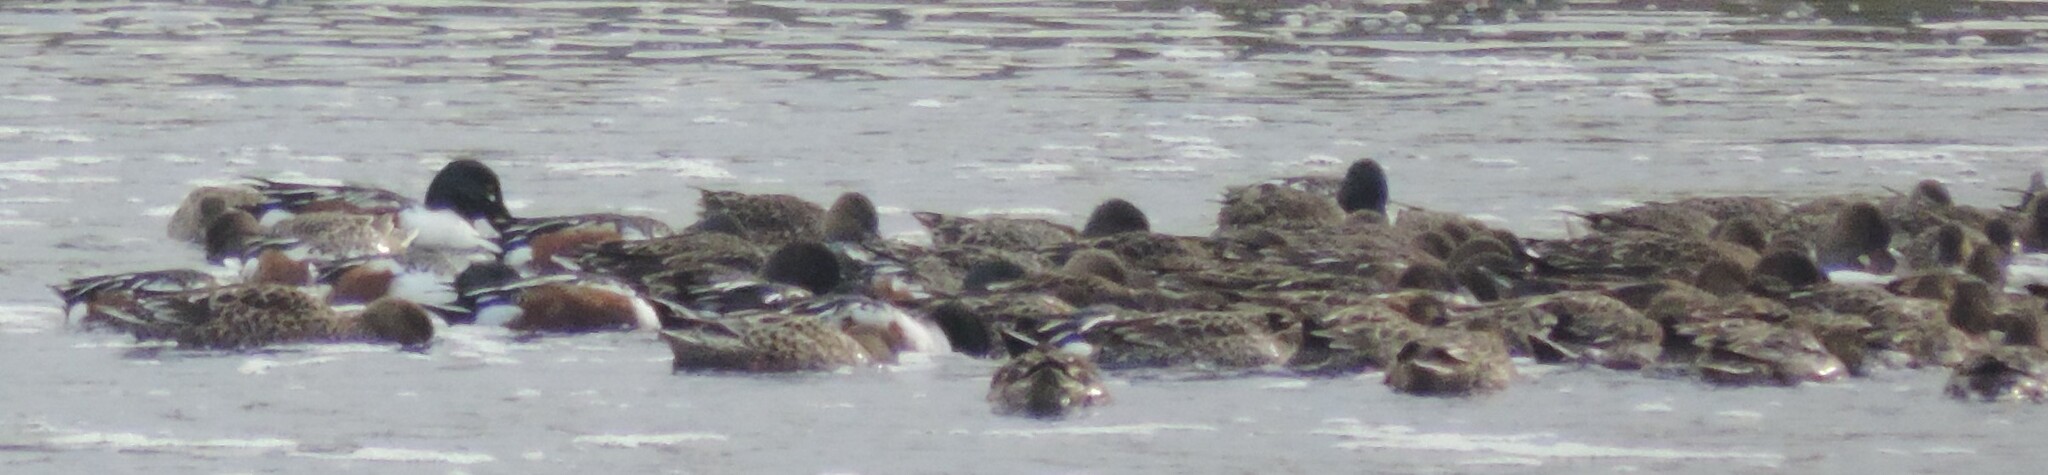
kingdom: Animalia
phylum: Chordata
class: Aves
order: Anseriformes
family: Anatidae
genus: Spatula
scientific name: Spatula clypeata
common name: Northern shoveler
